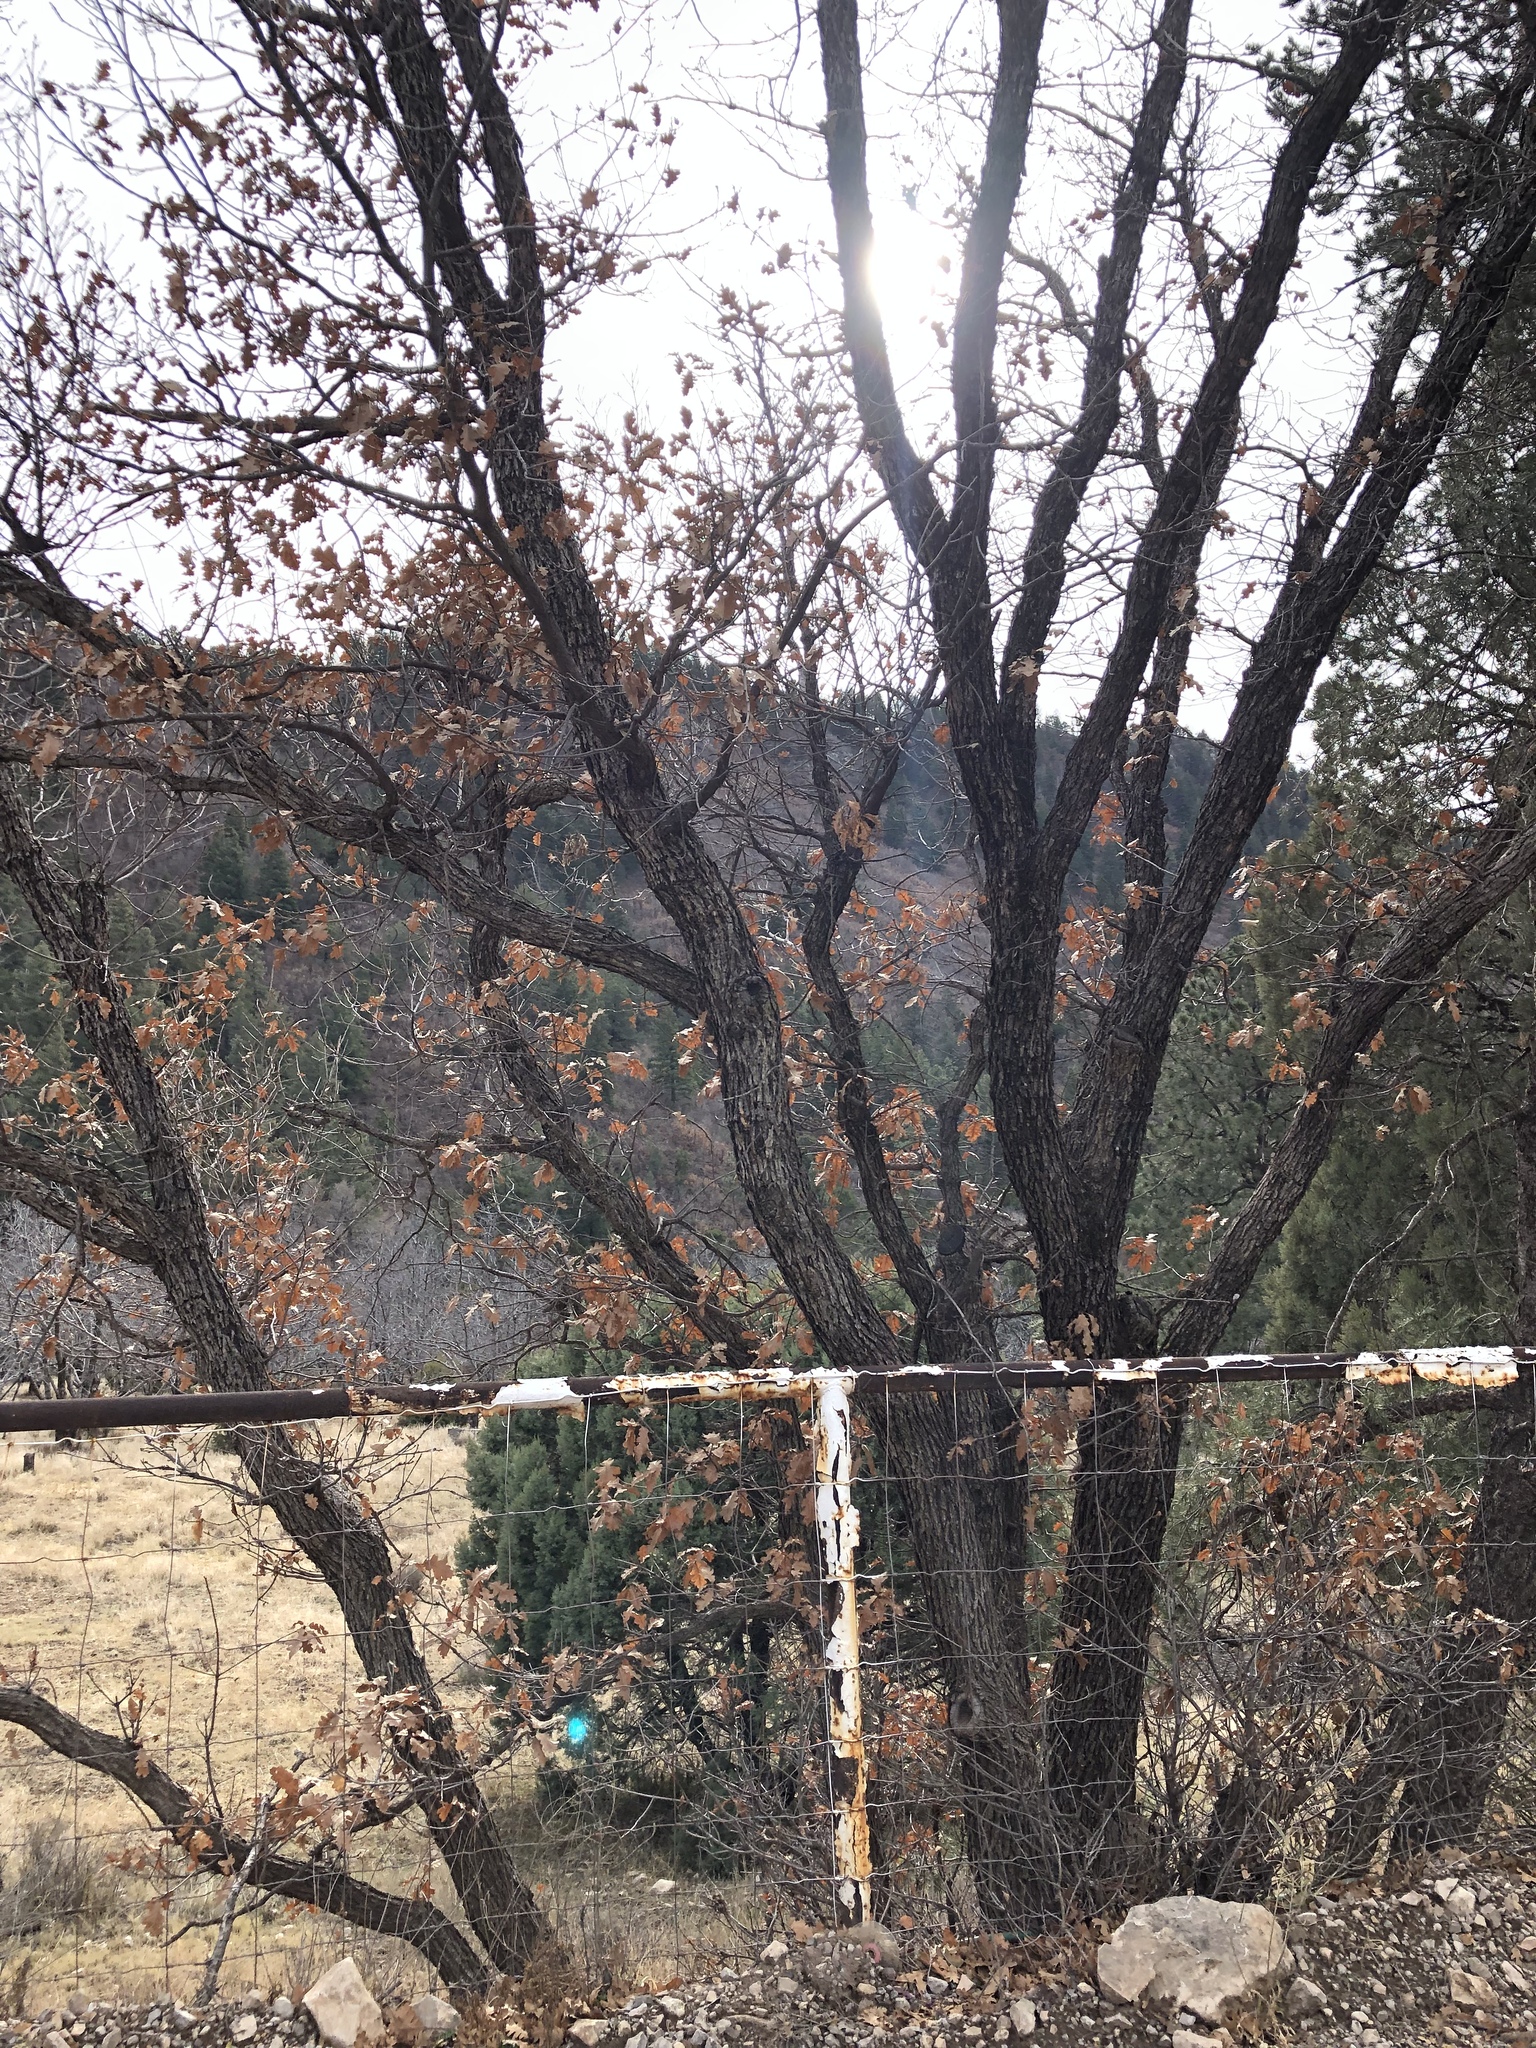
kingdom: Plantae
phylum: Tracheophyta
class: Magnoliopsida
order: Fagales
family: Fagaceae
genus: Quercus
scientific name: Quercus gambelii
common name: Gambel oak
